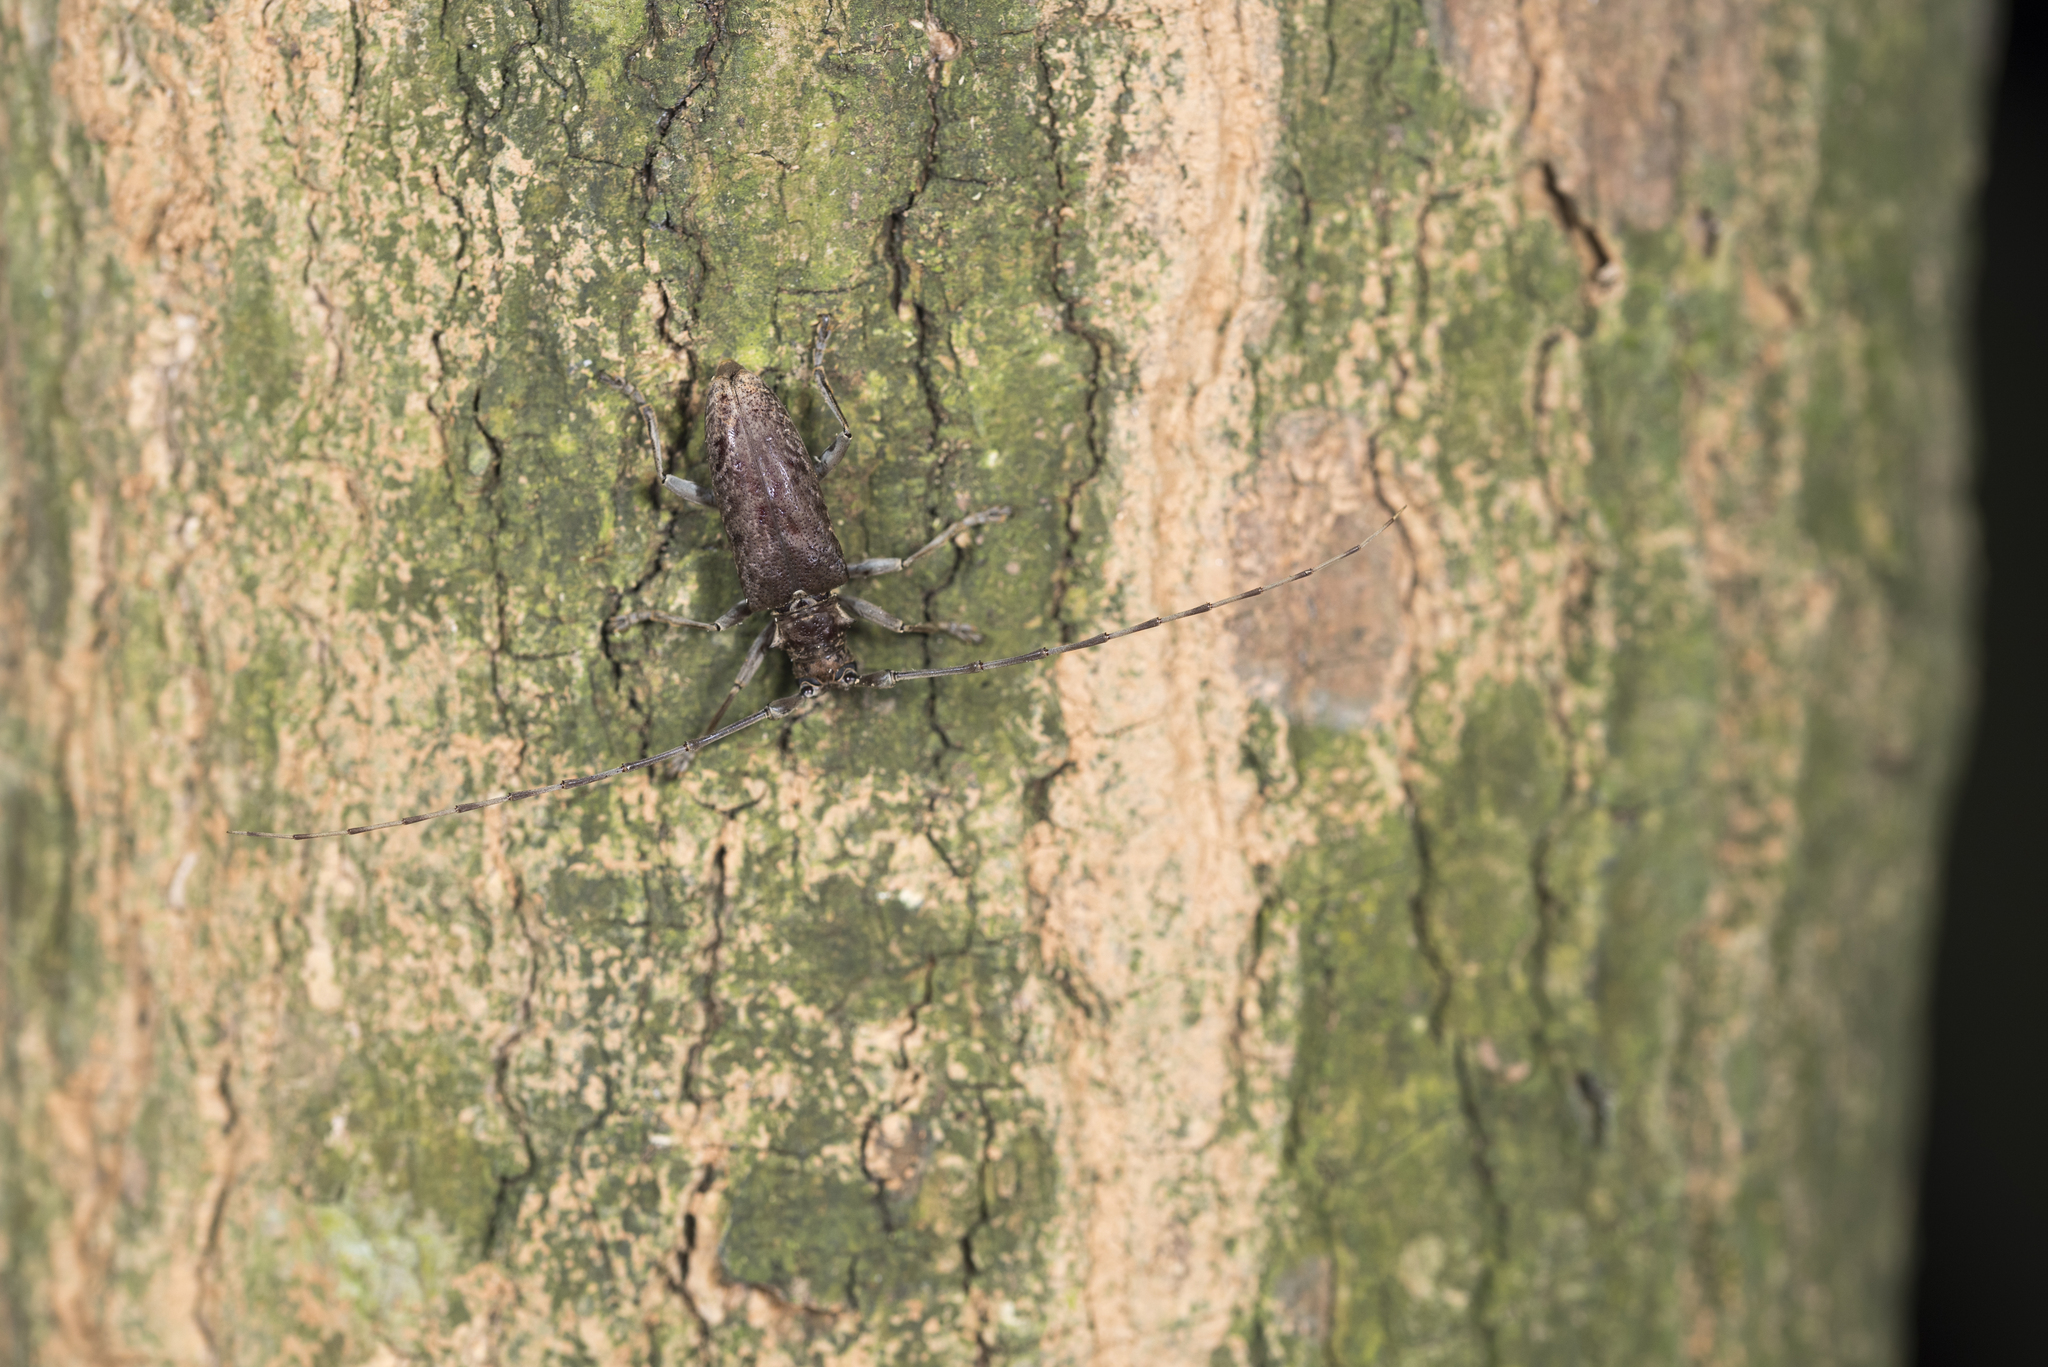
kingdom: Animalia
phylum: Arthropoda
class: Insecta
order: Coleoptera
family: Cerambycidae
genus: Acalolepta
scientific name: Acalolepta rusticatrix
